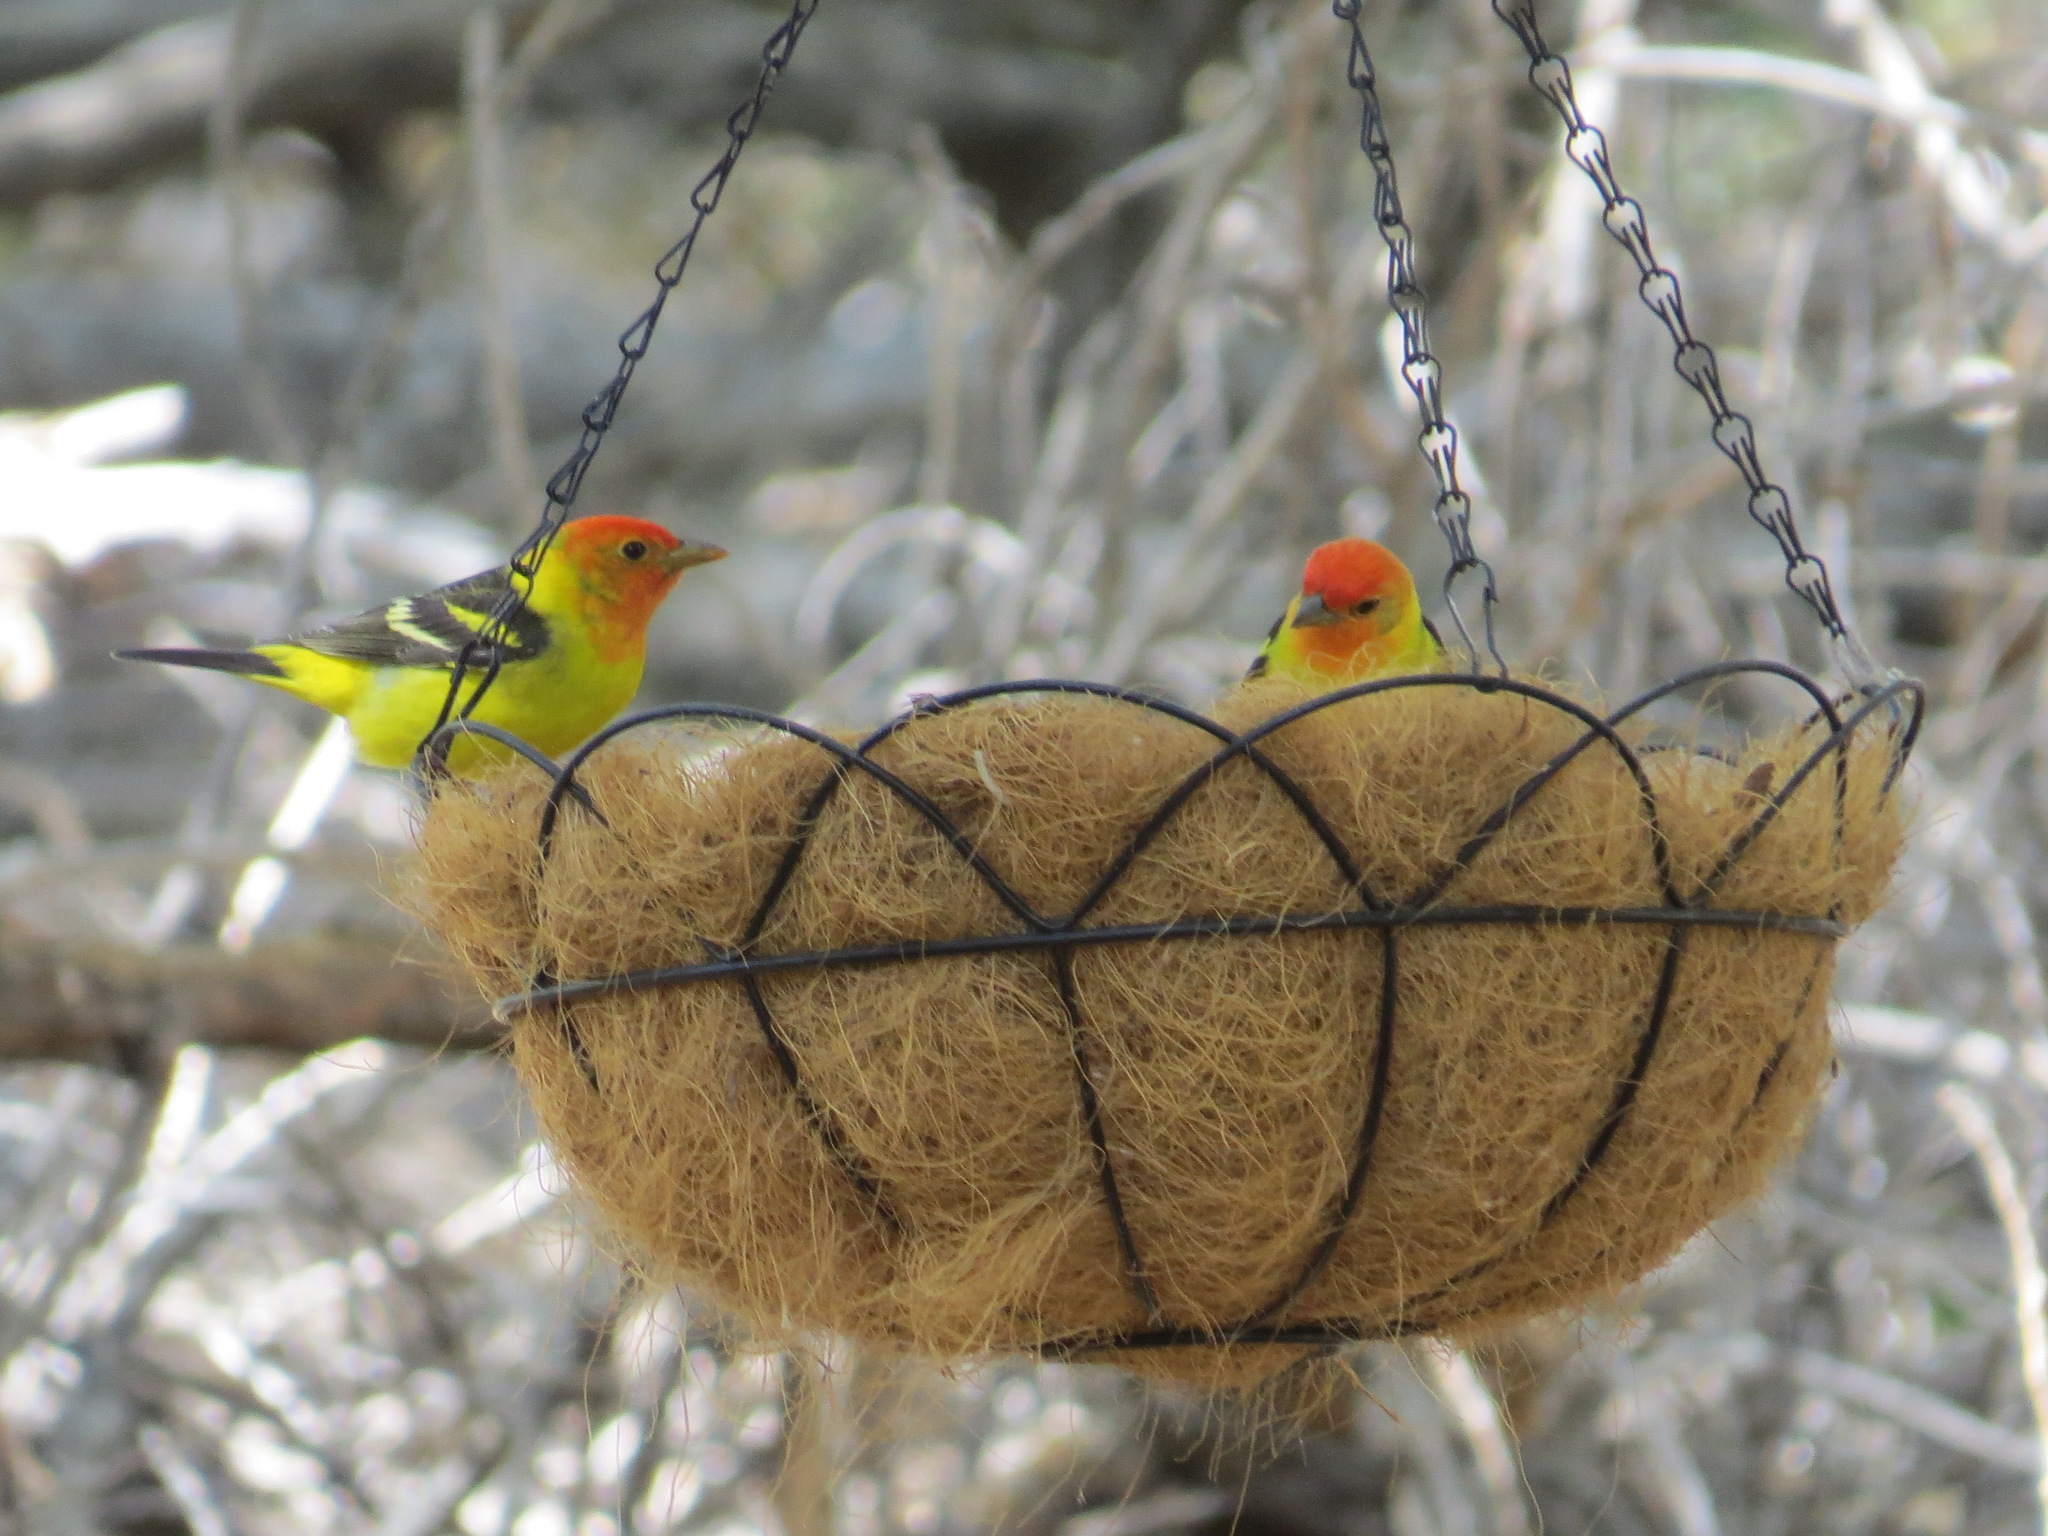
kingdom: Animalia
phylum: Chordata
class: Aves
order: Passeriformes
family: Cardinalidae
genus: Piranga
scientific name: Piranga ludoviciana
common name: Western tanager
